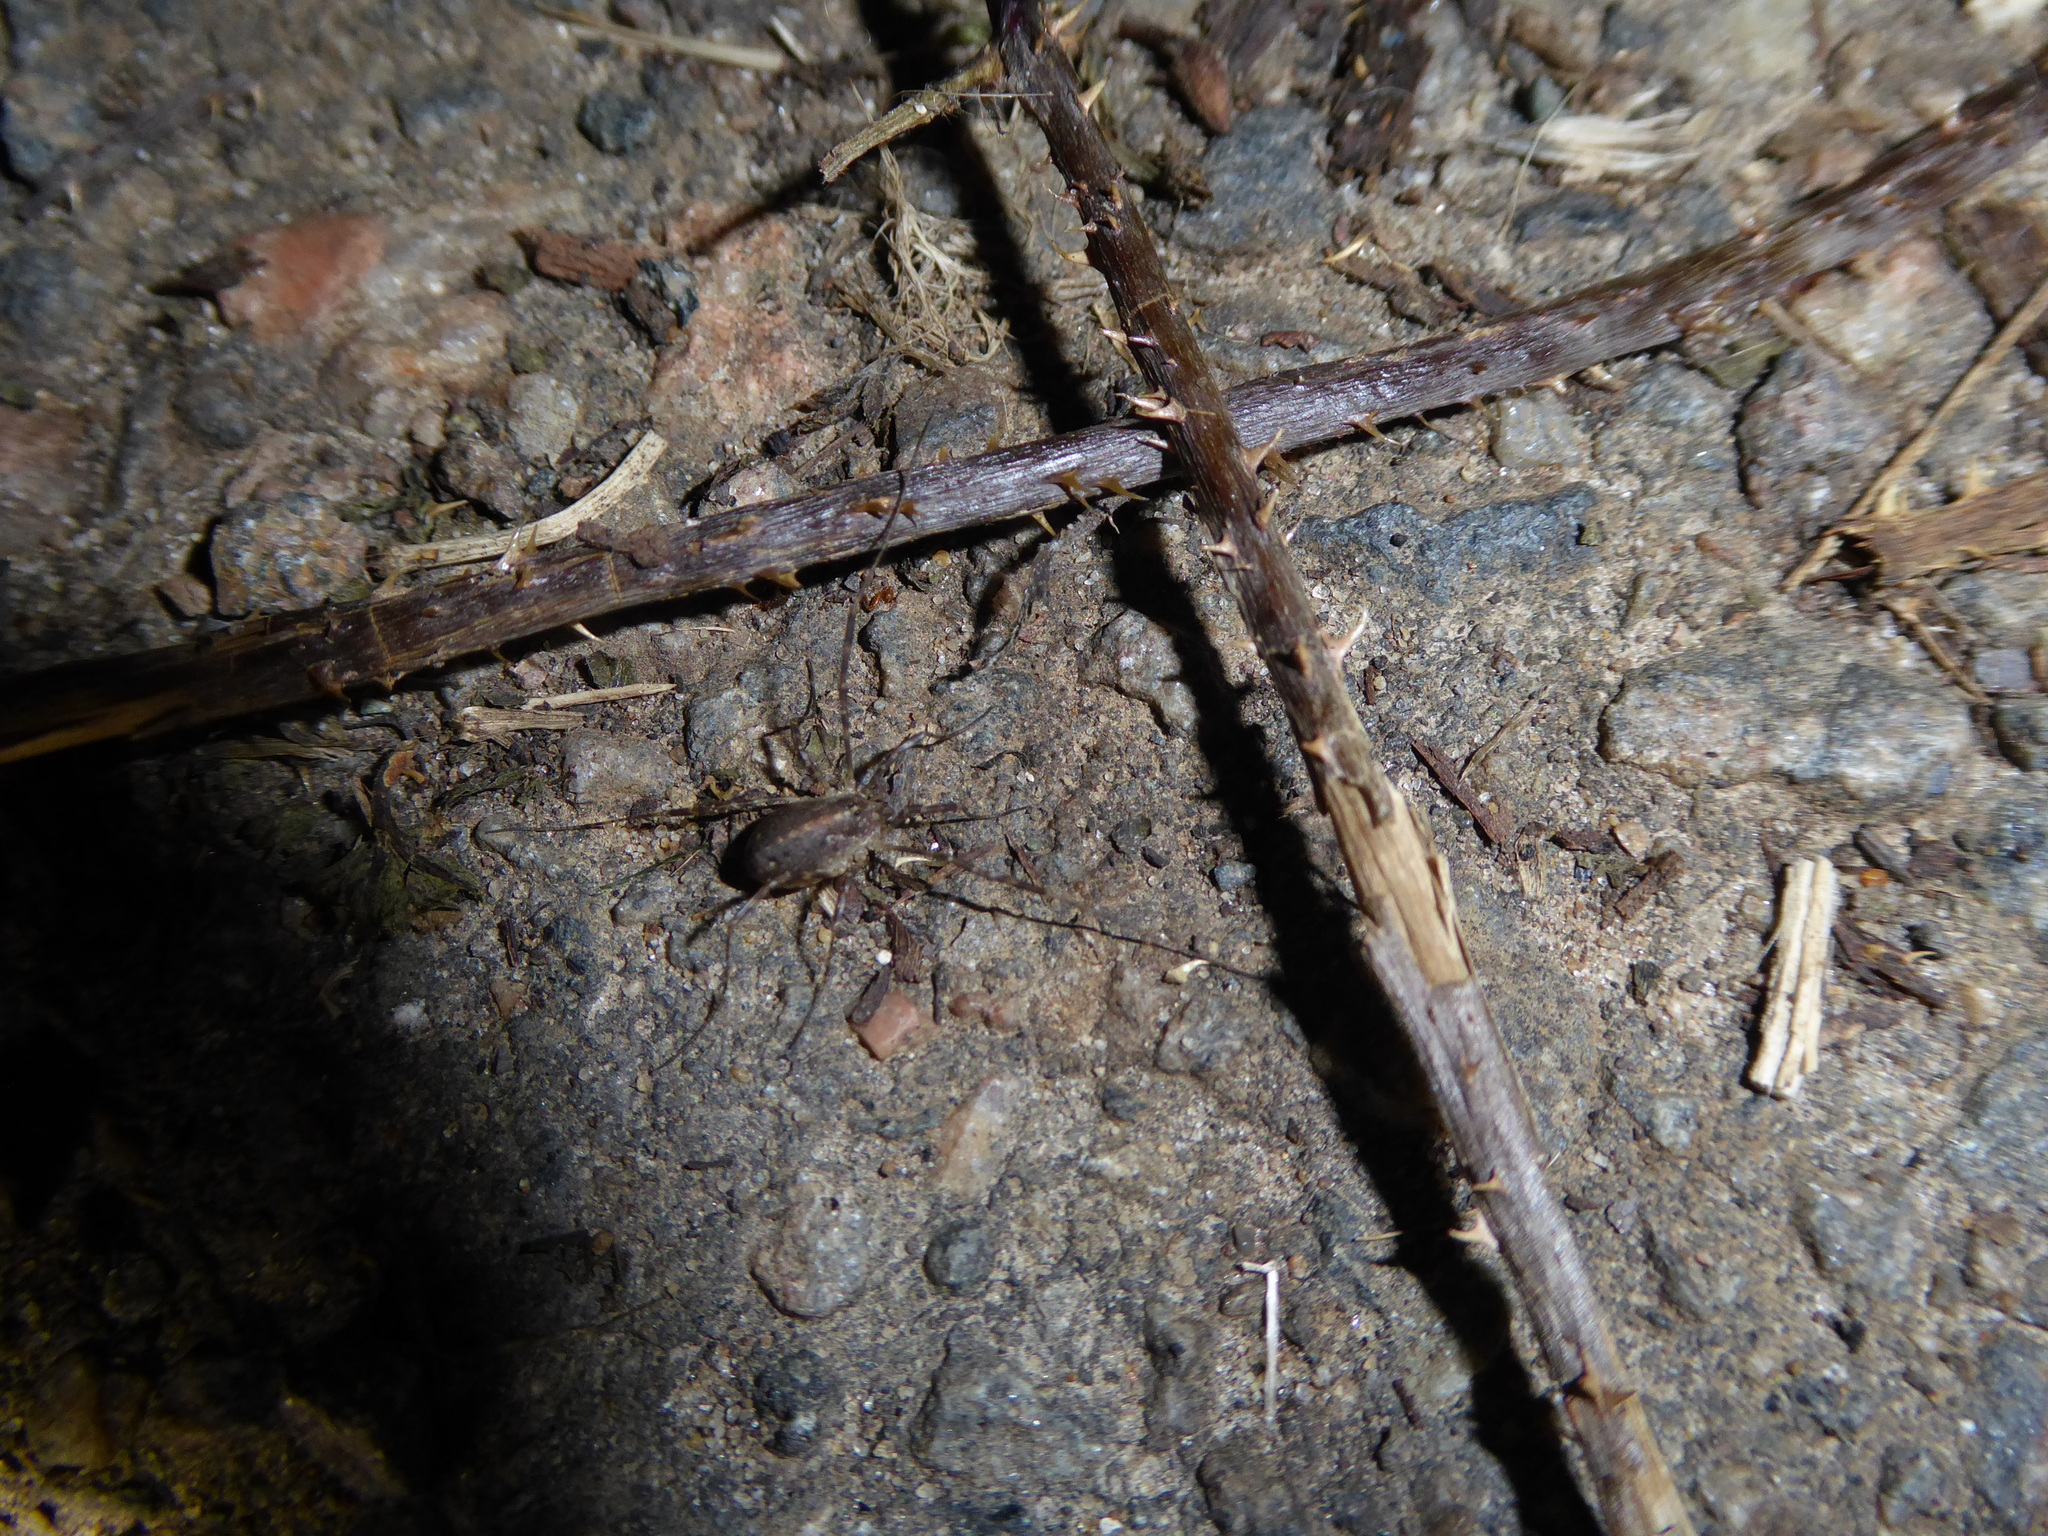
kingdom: Animalia
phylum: Arthropoda
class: Arachnida
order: Opiliones
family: Phalangiidae
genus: Paroligolophus
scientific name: Paroligolophus agrestis
